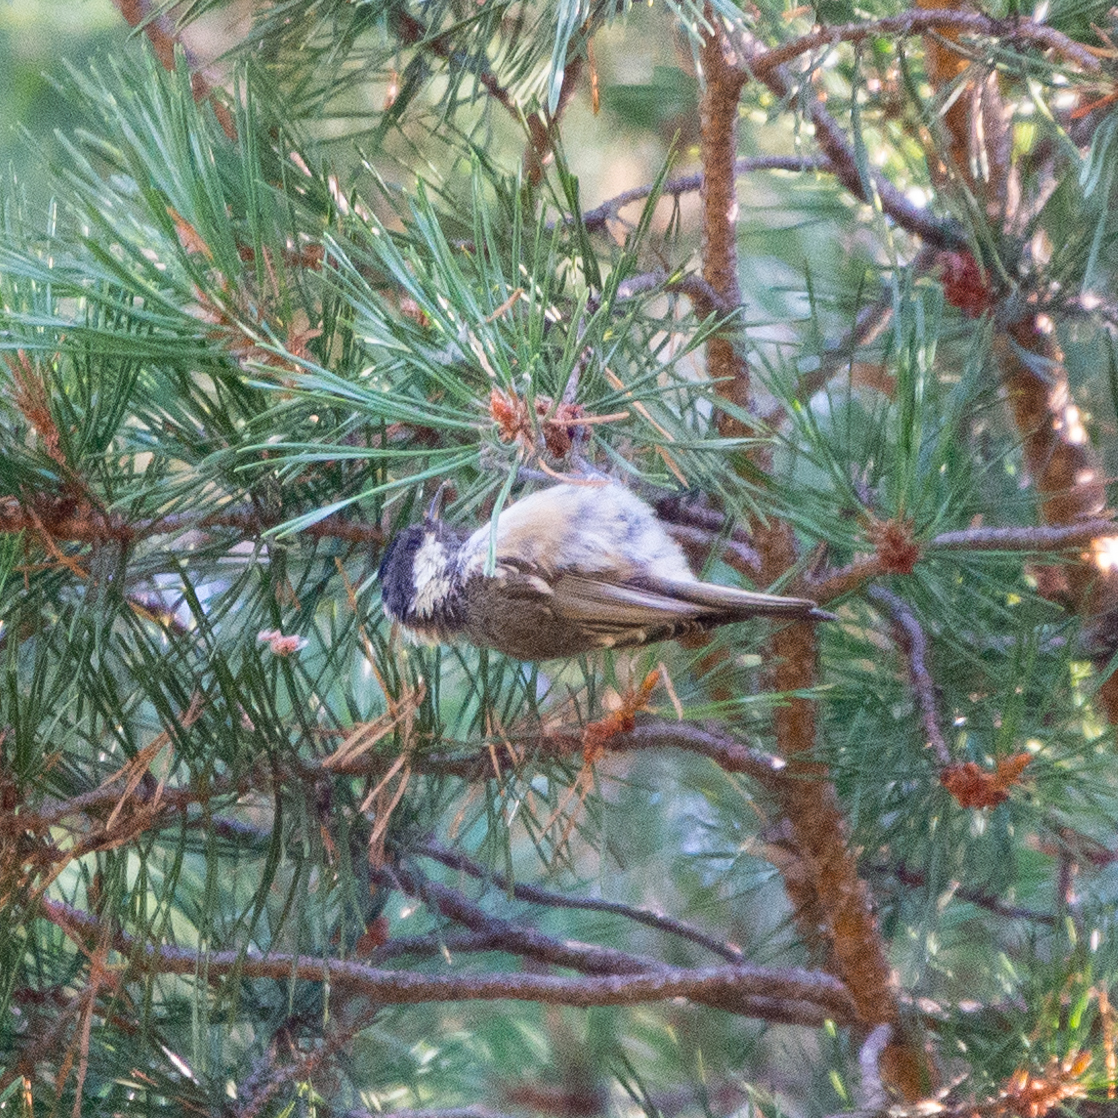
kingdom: Animalia
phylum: Chordata
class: Aves
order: Passeriformes
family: Paridae
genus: Periparus
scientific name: Periparus ater
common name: Coal tit
